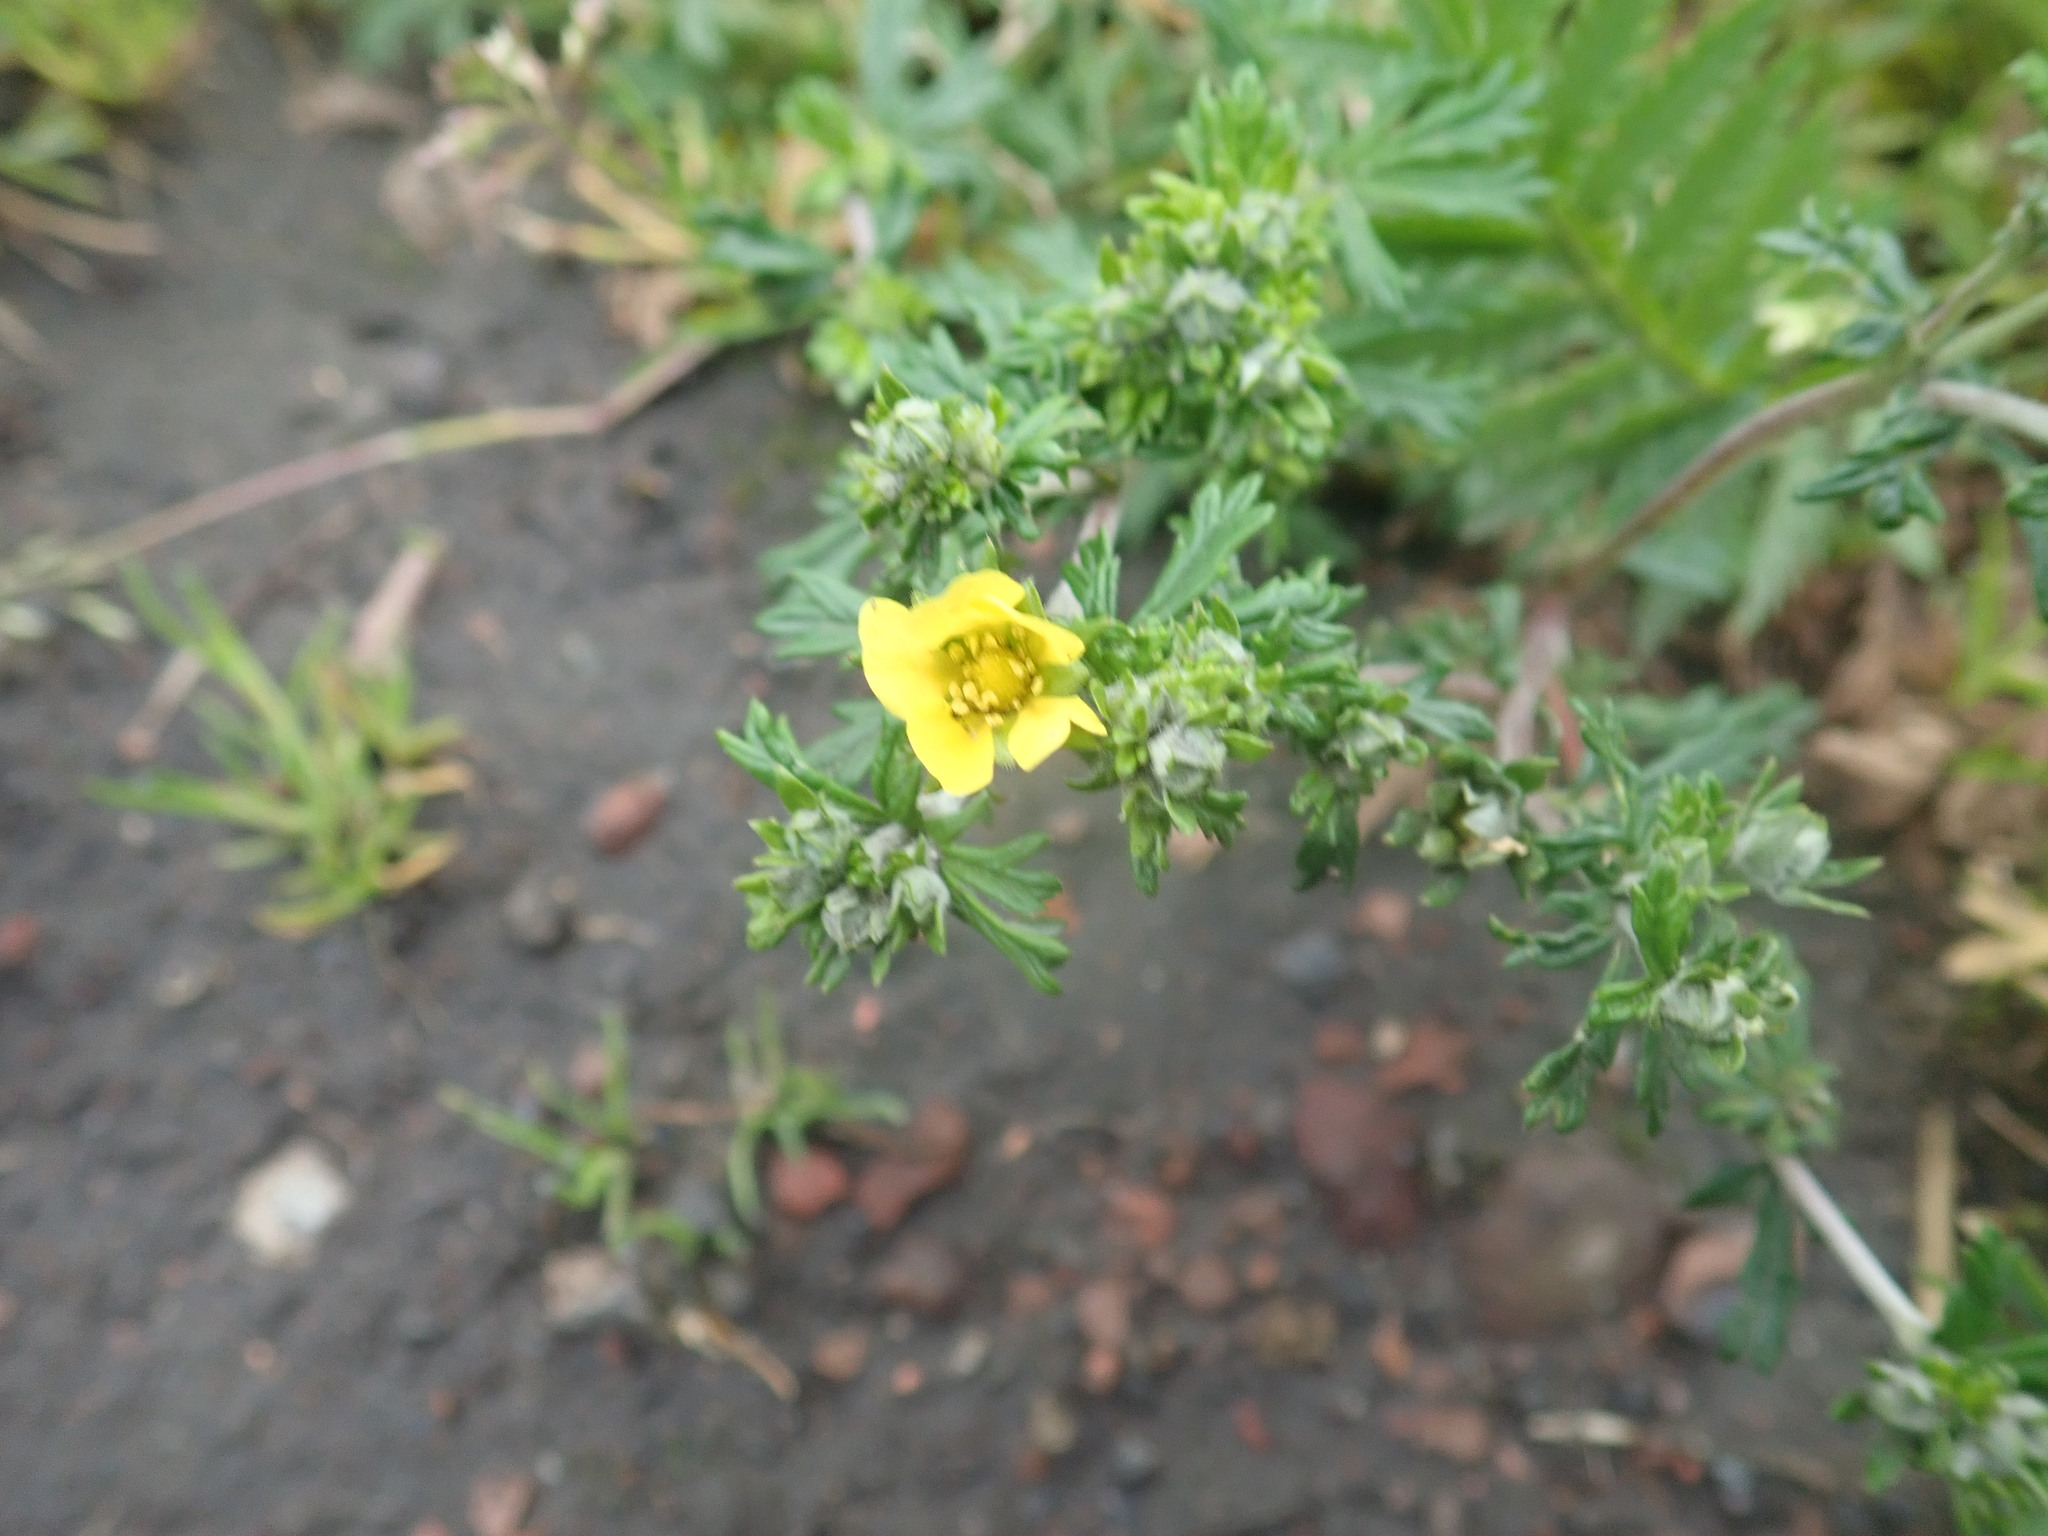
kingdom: Plantae
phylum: Tracheophyta
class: Magnoliopsida
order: Rosales
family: Rosaceae
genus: Potentilla
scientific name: Potentilla argentea
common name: Hoary cinquefoil
